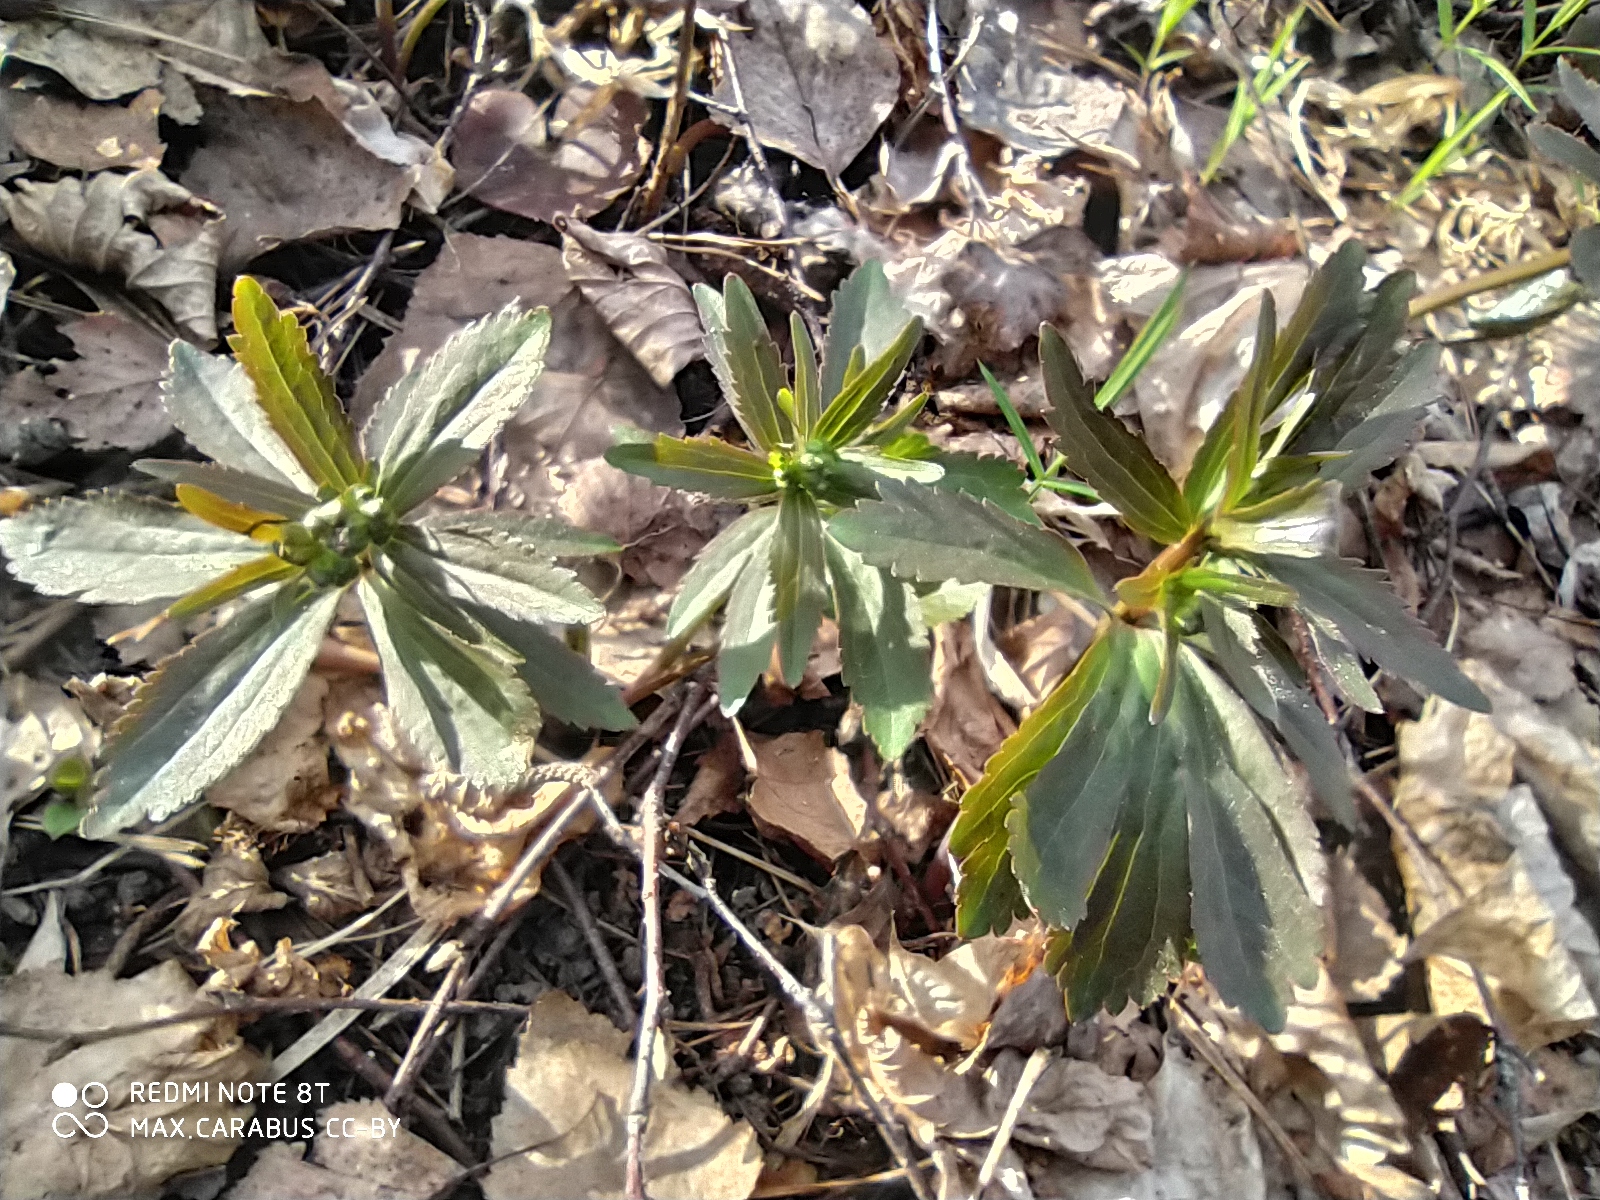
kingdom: Plantae
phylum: Tracheophyta
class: Magnoliopsida
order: Ranunculales
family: Ranunculaceae
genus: Ranunculus
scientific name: Ranunculus cassubicus
